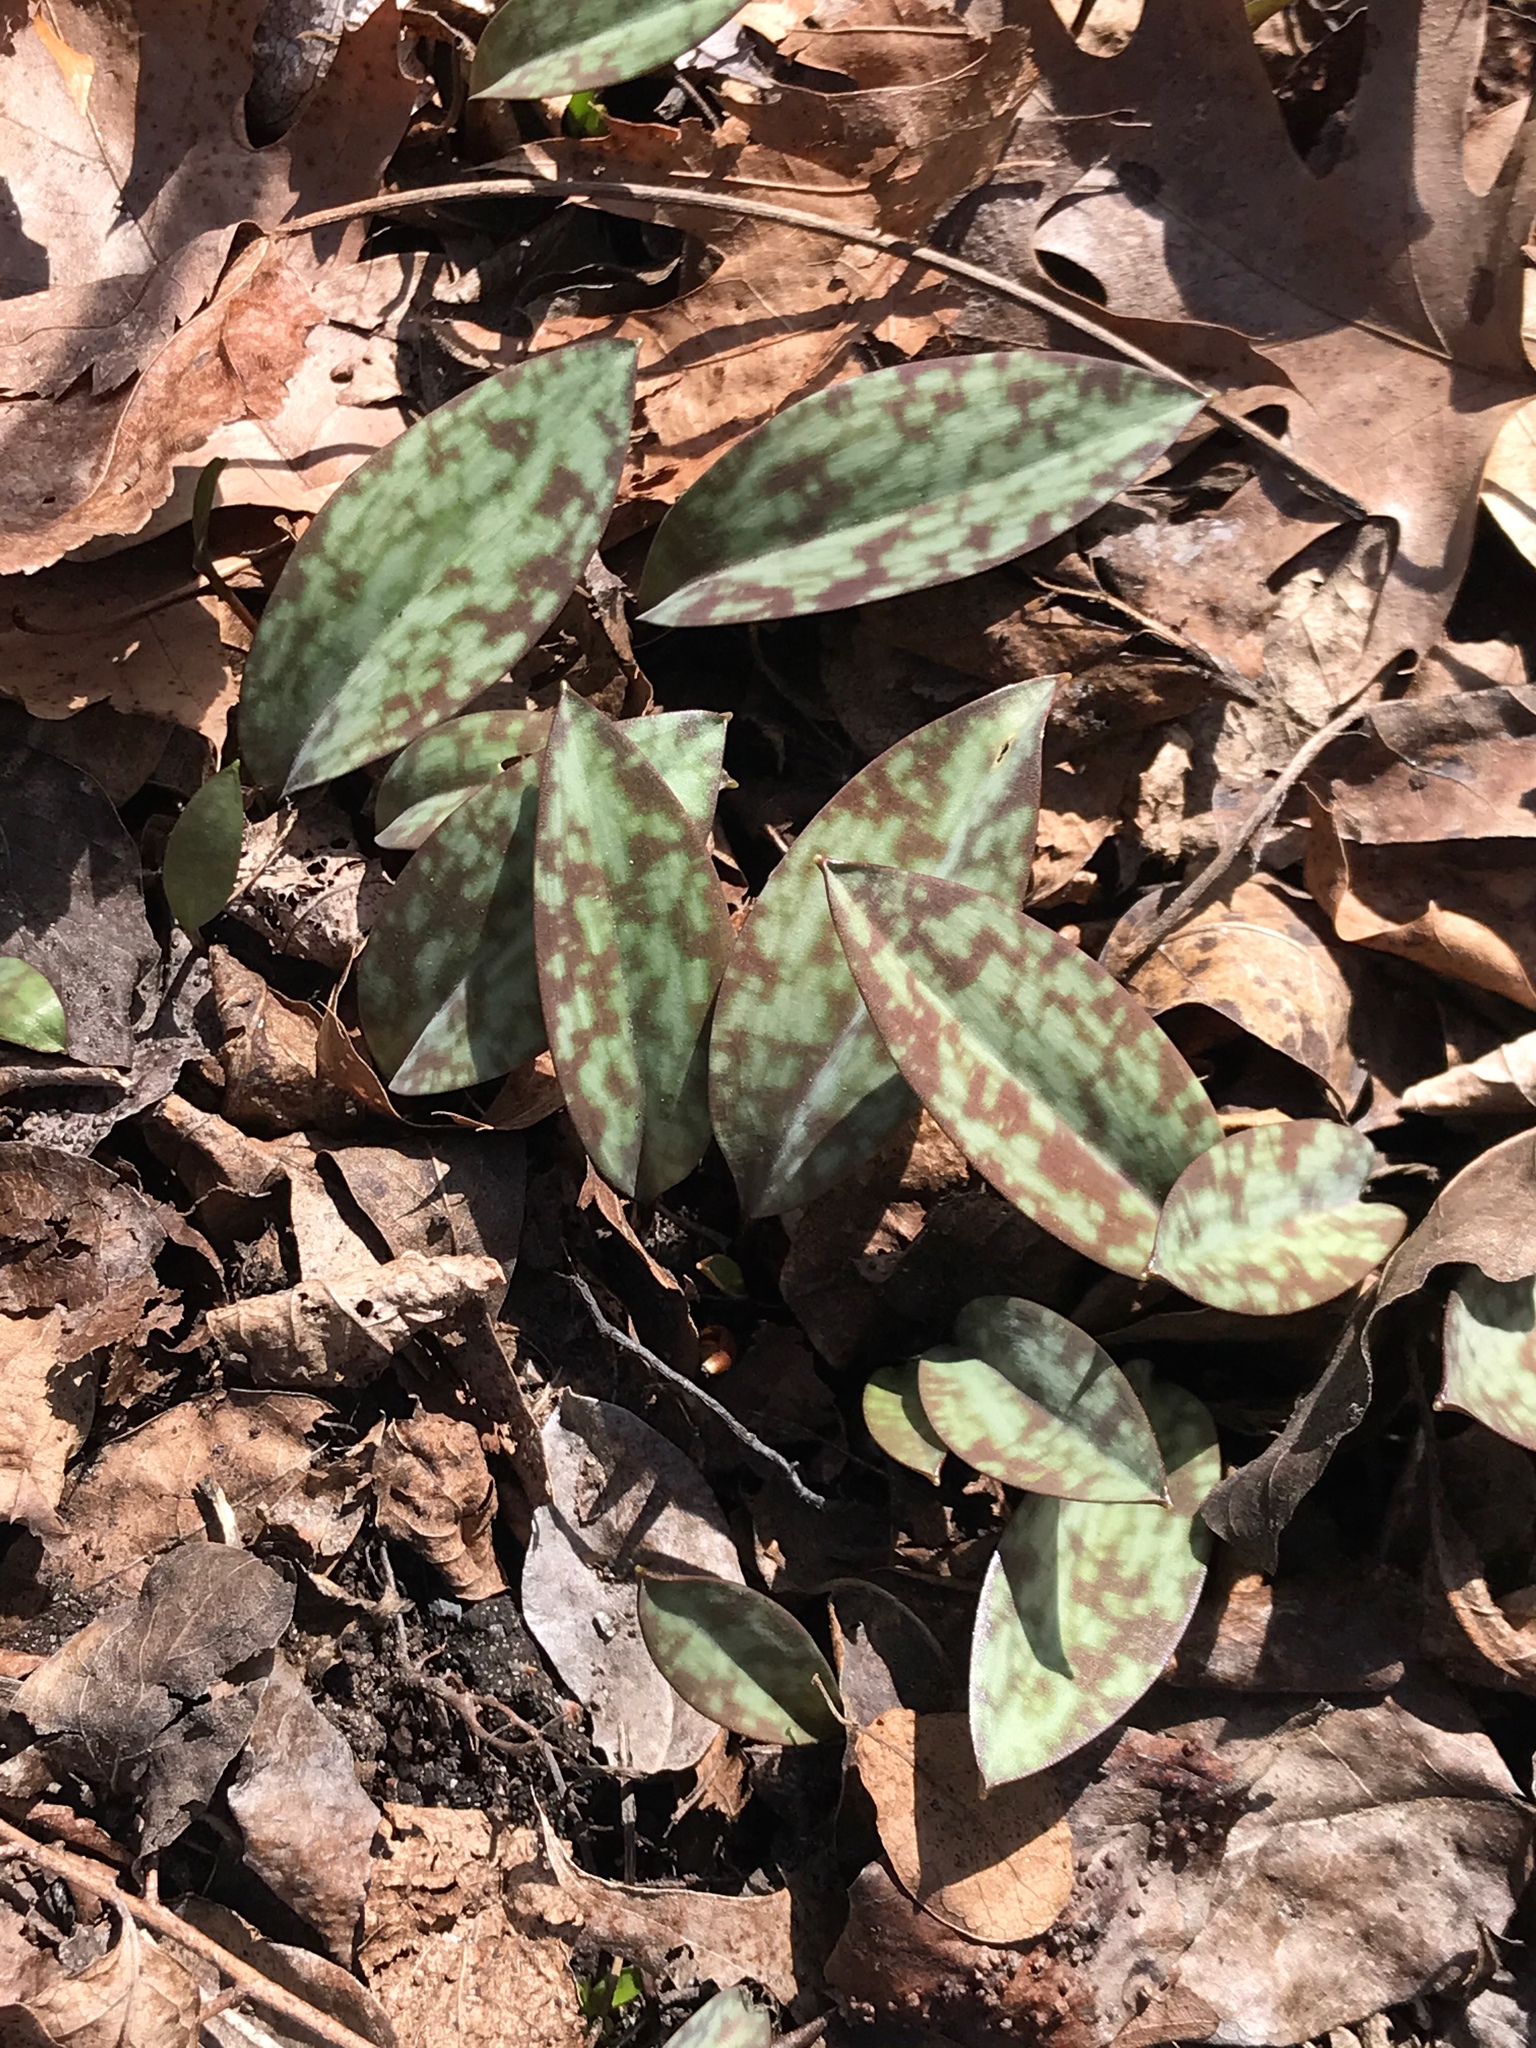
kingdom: Plantae
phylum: Tracheophyta
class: Liliopsida
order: Liliales
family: Liliaceae
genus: Erythronium
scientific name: Erythronium americanum
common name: Yellow adder's-tongue
